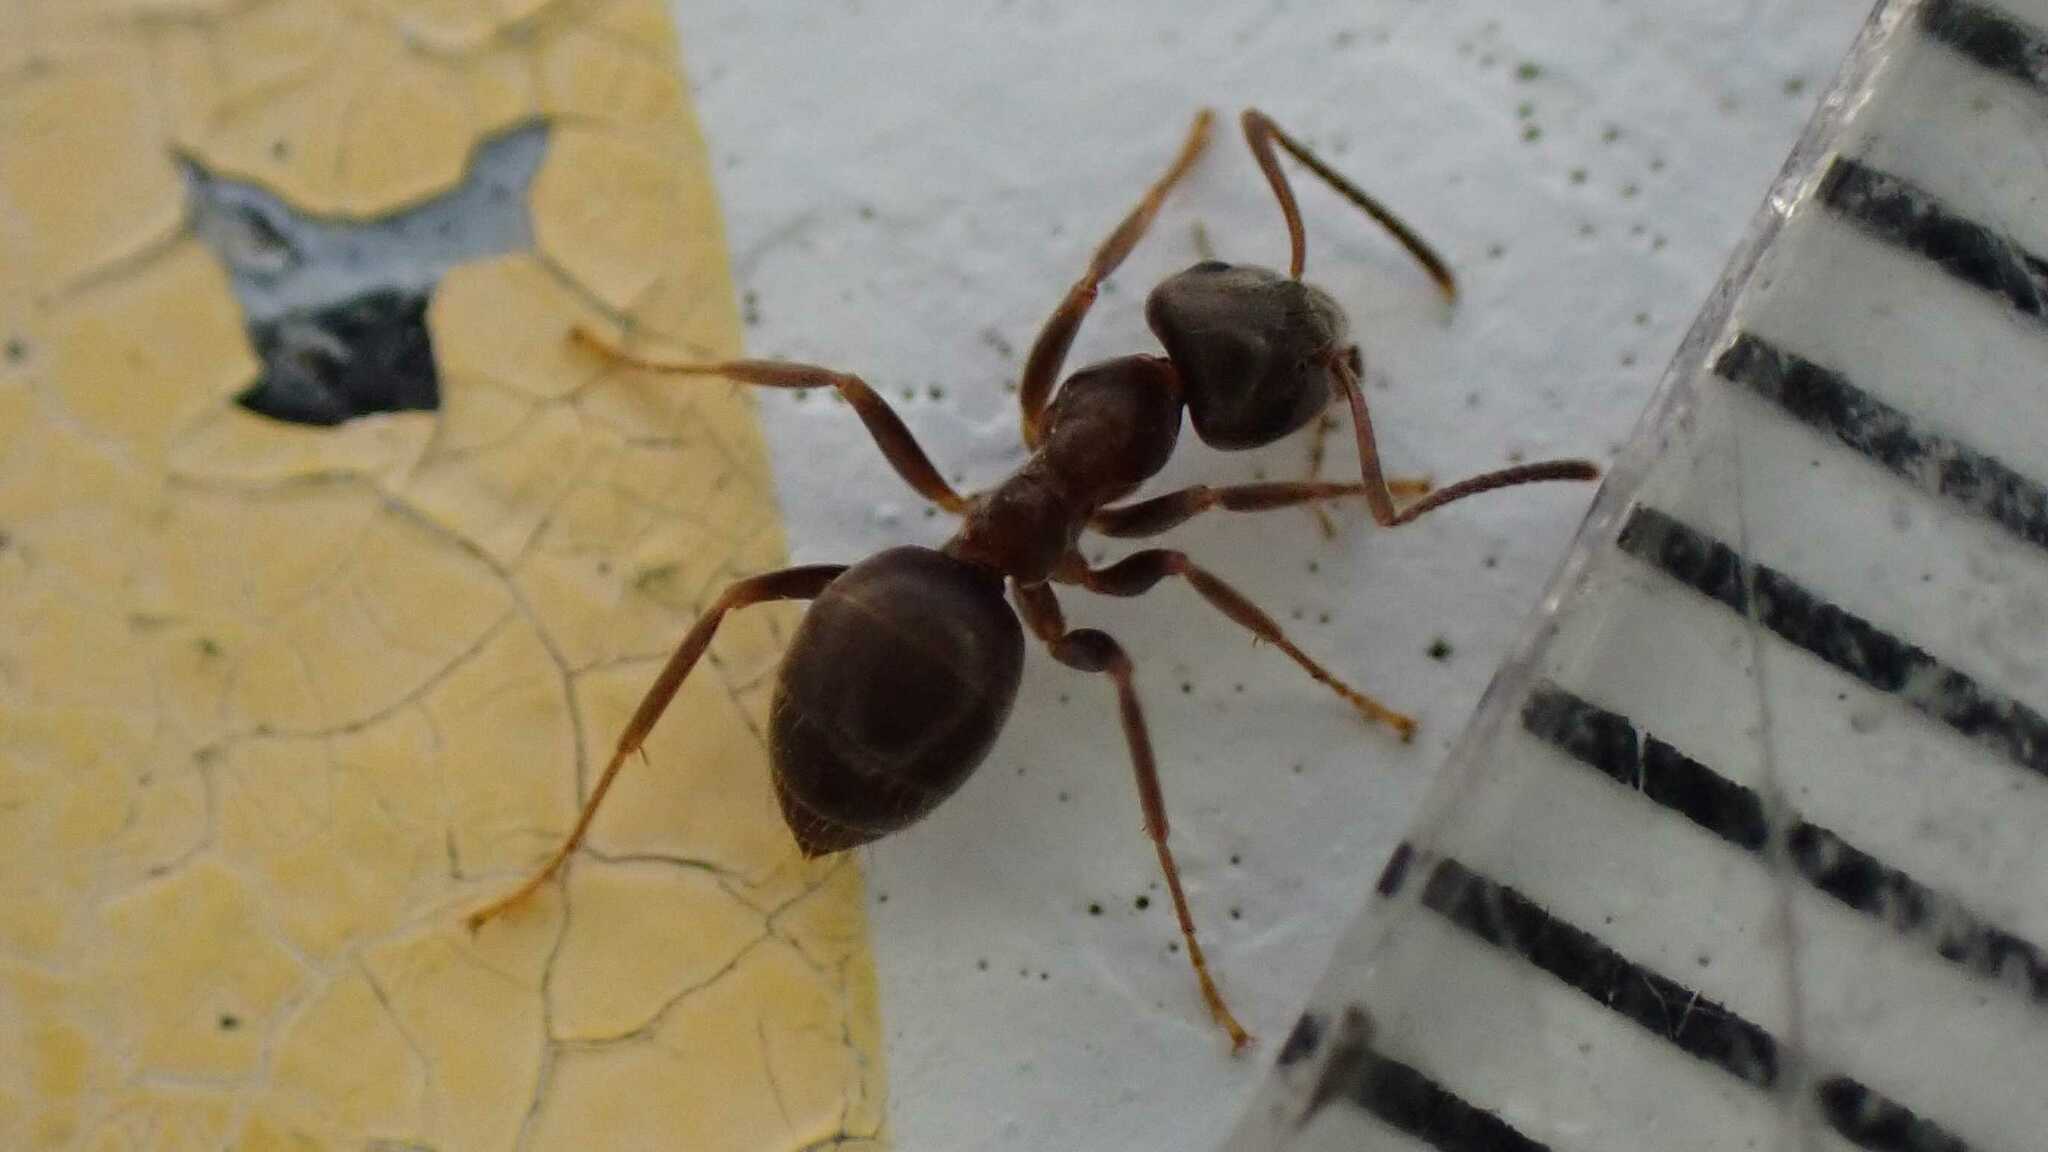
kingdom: Animalia
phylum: Arthropoda
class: Insecta
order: Hymenoptera
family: Formicidae
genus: Lasius
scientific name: Lasius
